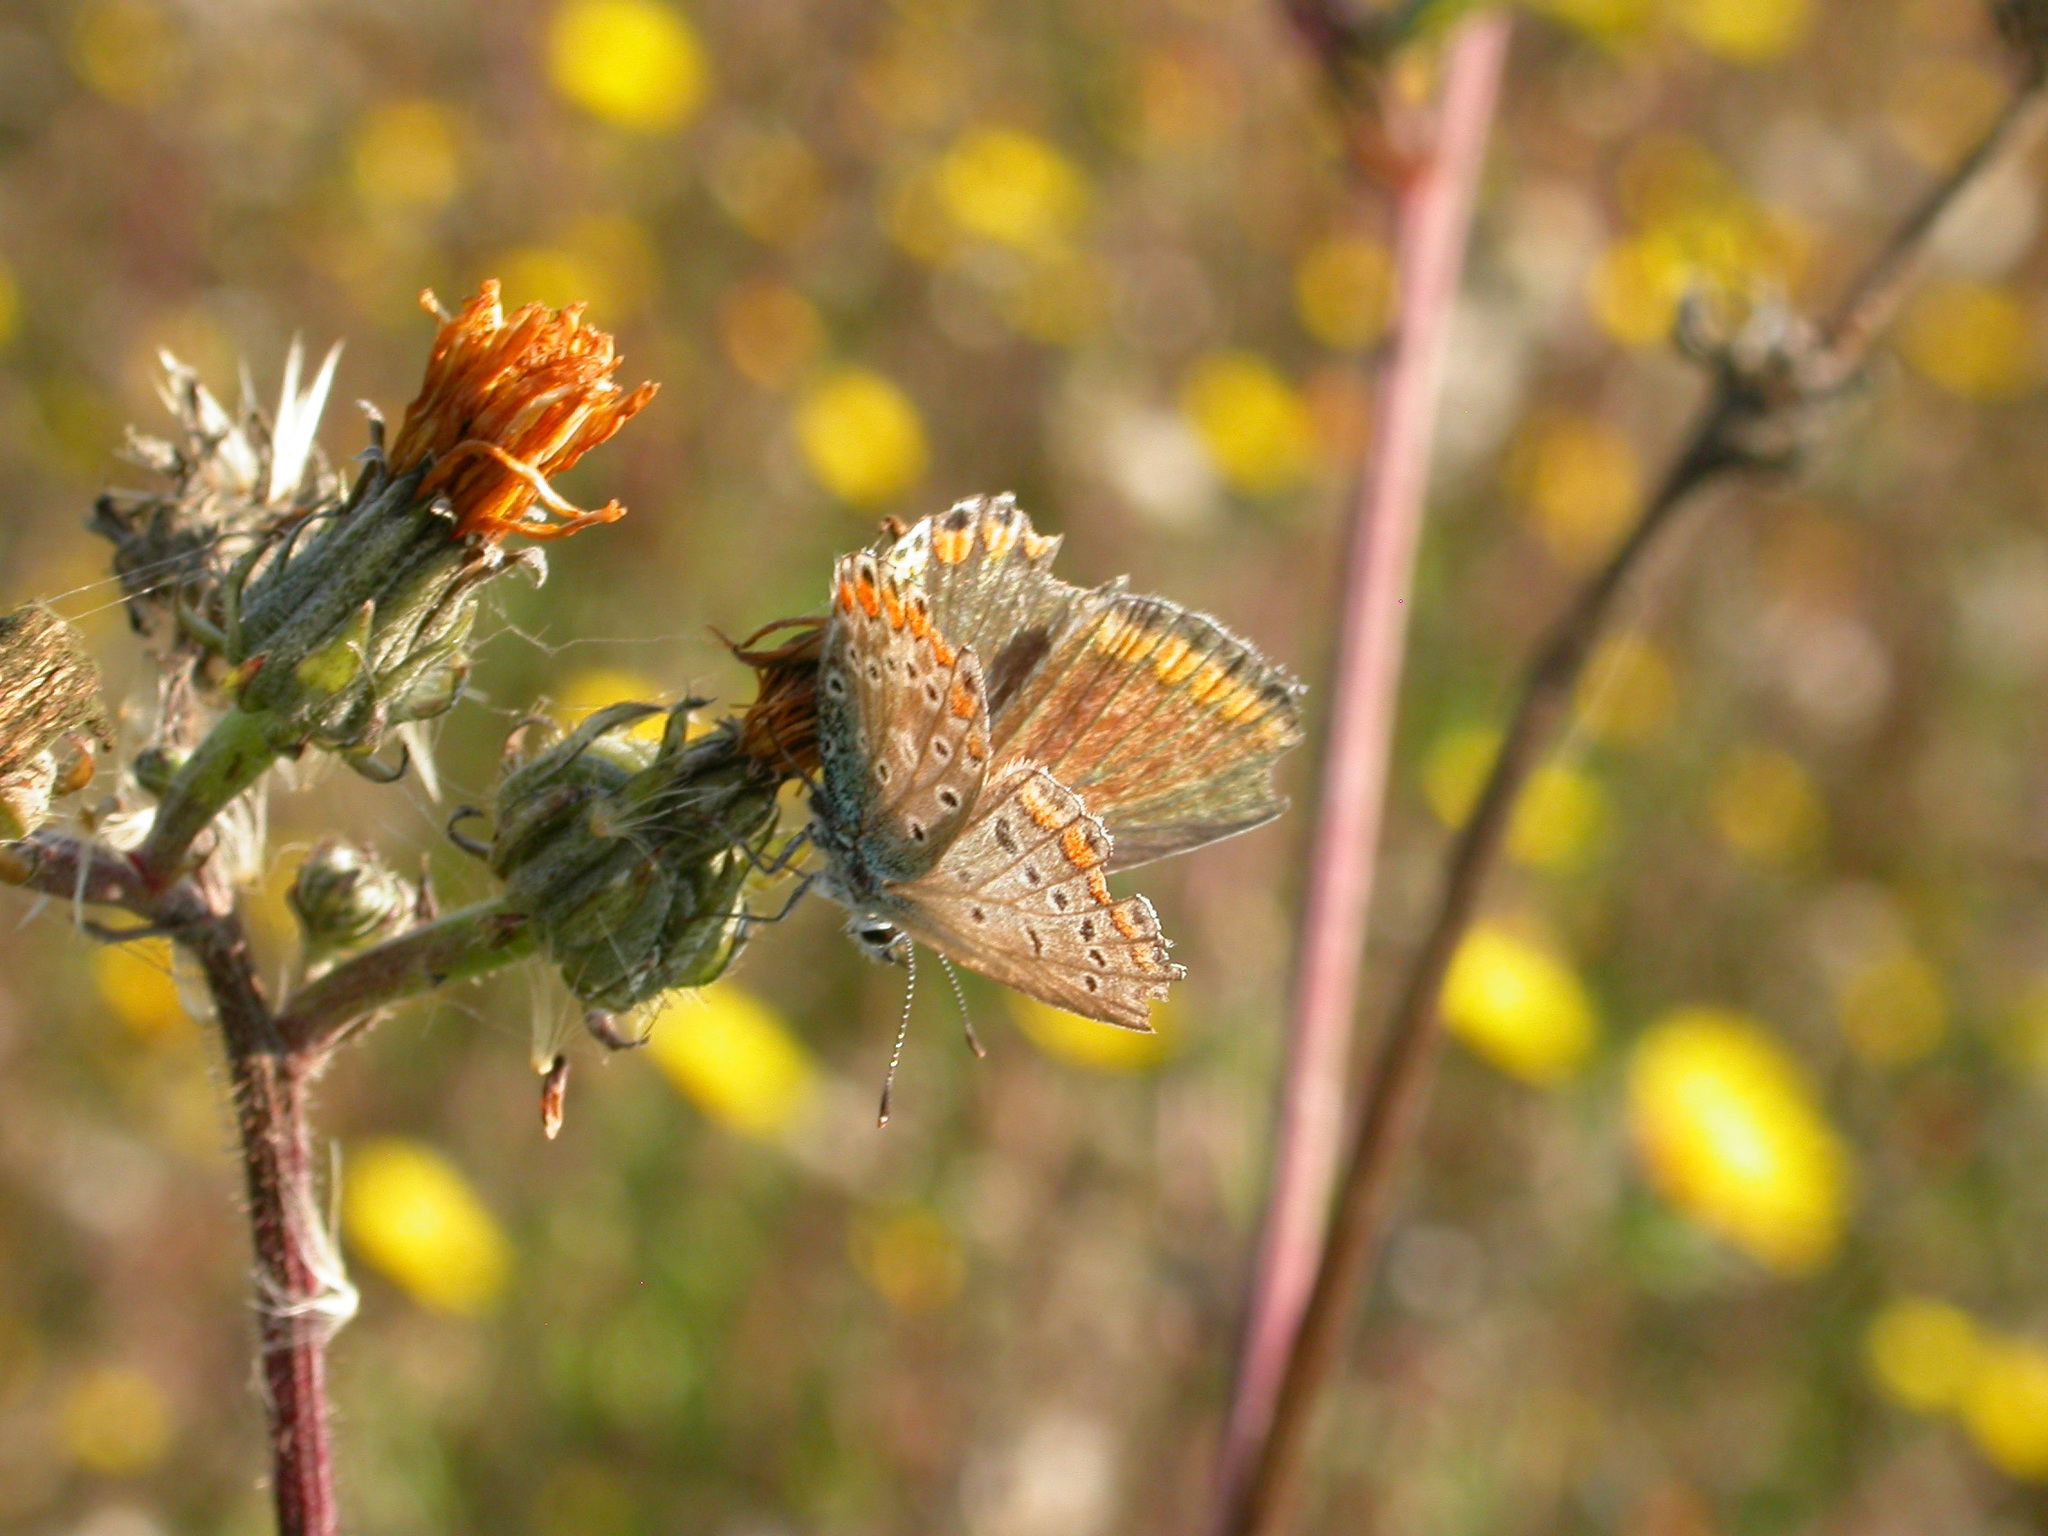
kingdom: Animalia
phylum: Arthropoda
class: Insecta
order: Lepidoptera
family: Lycaenidae
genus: Polyommatus
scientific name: Polyommatus icarus
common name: Common blue
